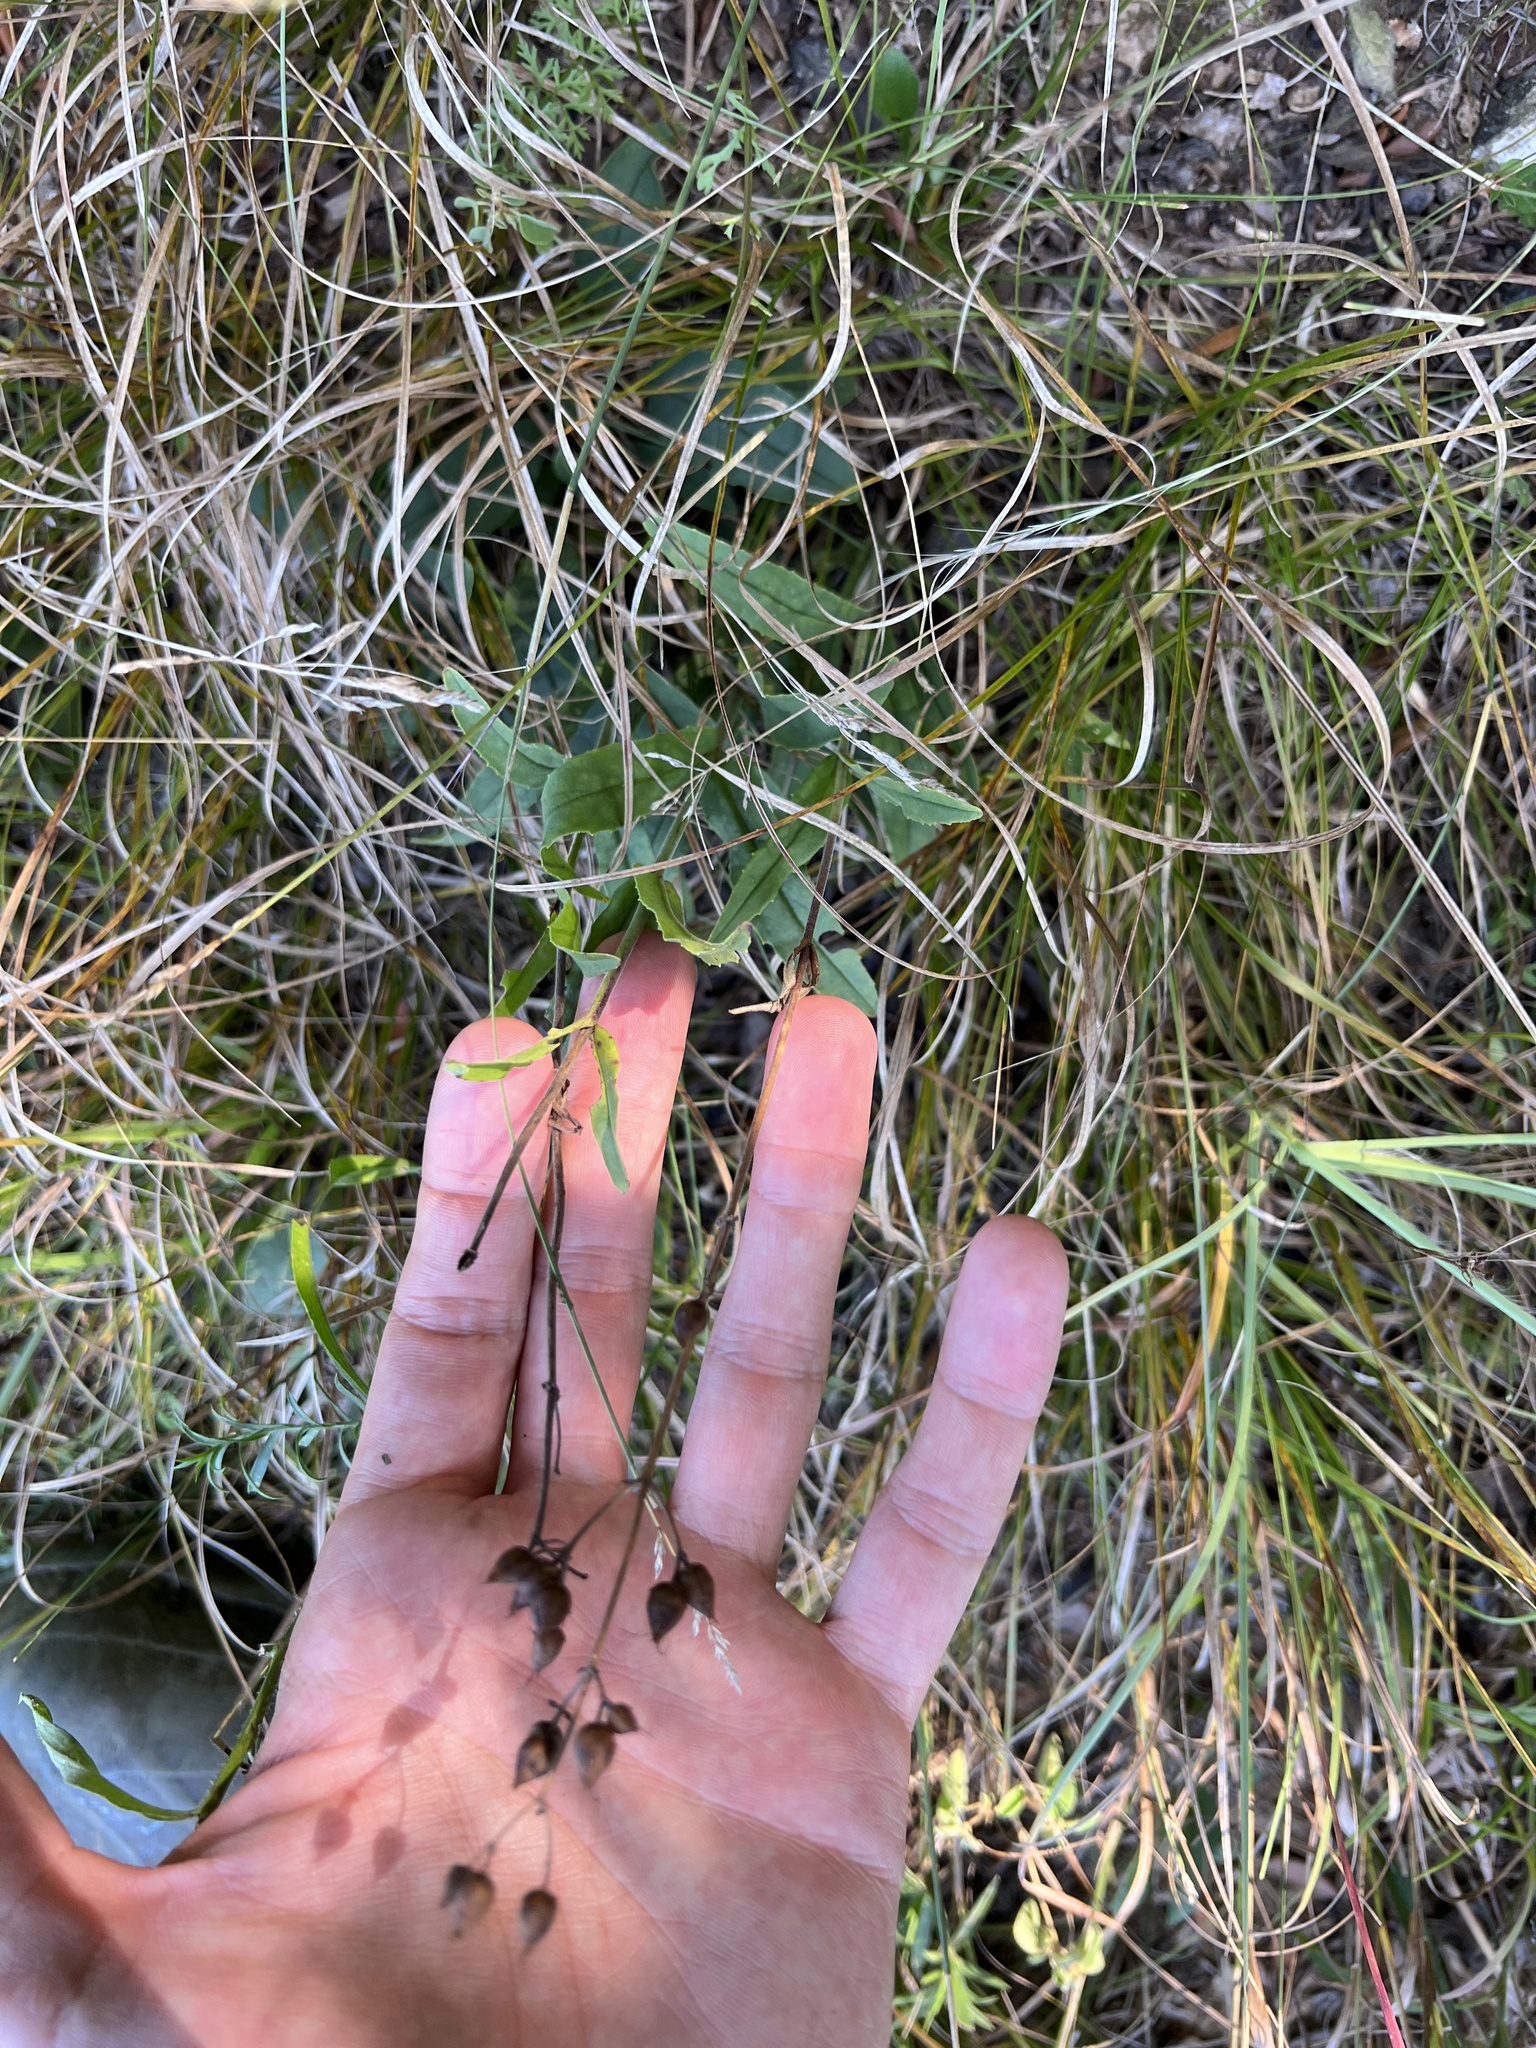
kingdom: Plantae
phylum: Tracheophyta
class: Magnoliopsida
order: Lamiales
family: Plantaginaceae
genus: Penstemon
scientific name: Penstemon pallidus
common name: Pale beardtongue
